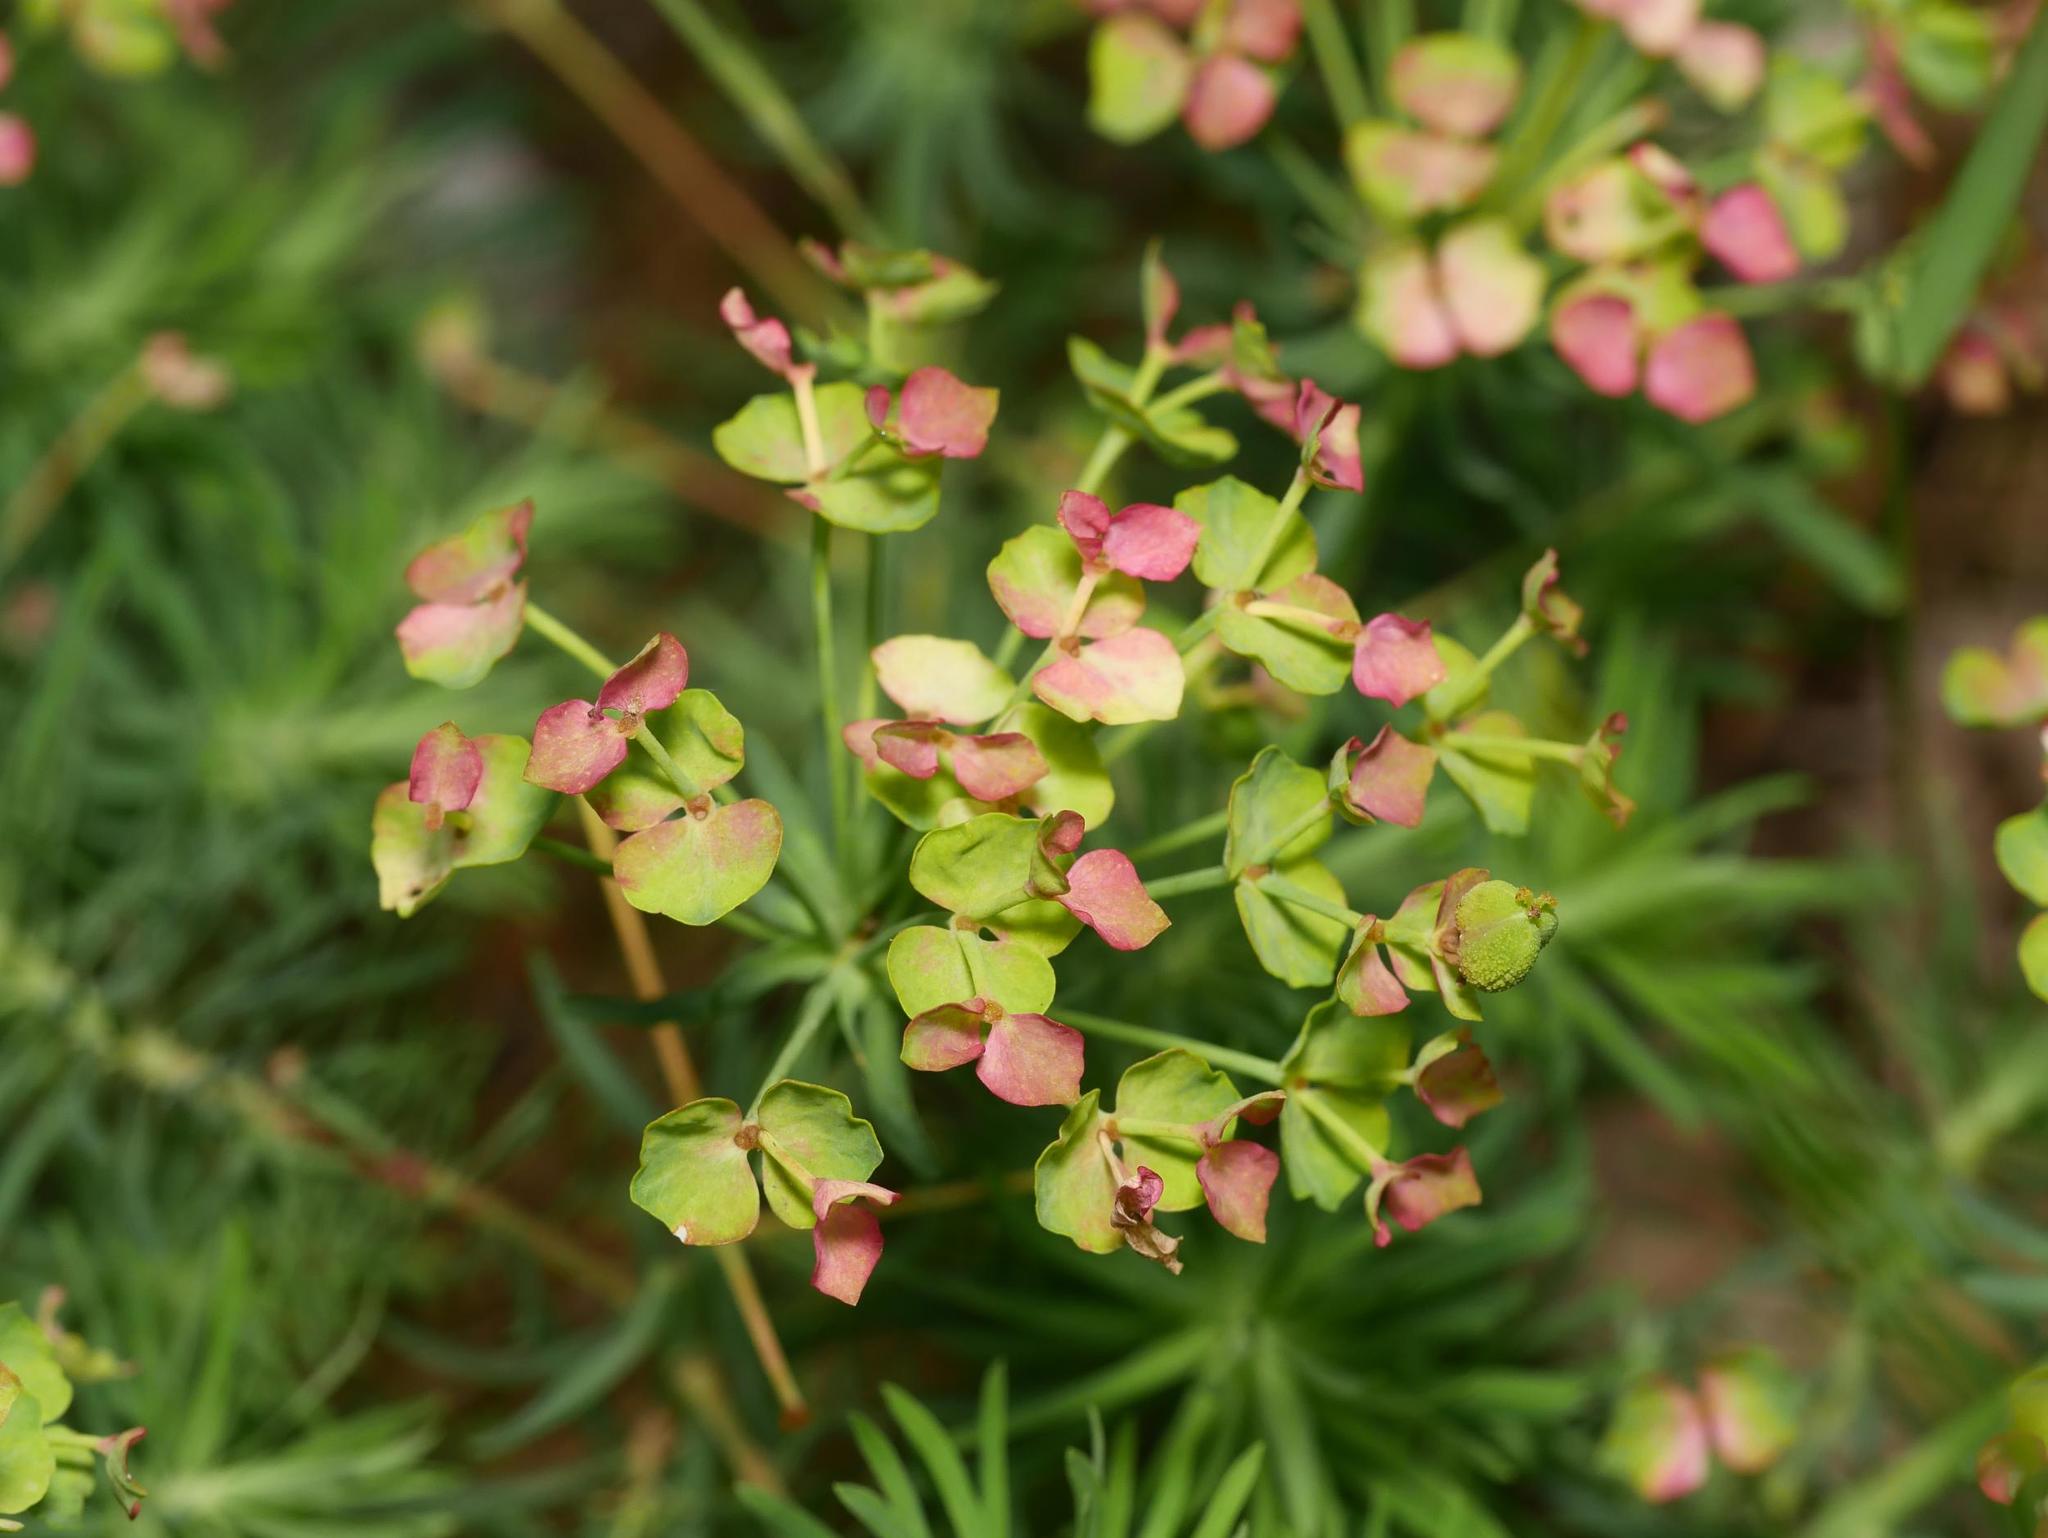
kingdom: Plantae
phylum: Tracheophyta
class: Magnoliopsida
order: Malpighiales
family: Euphorbiaceae
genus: Euphorbia
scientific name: Euphorbia cyparissias
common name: Cypress spurge
